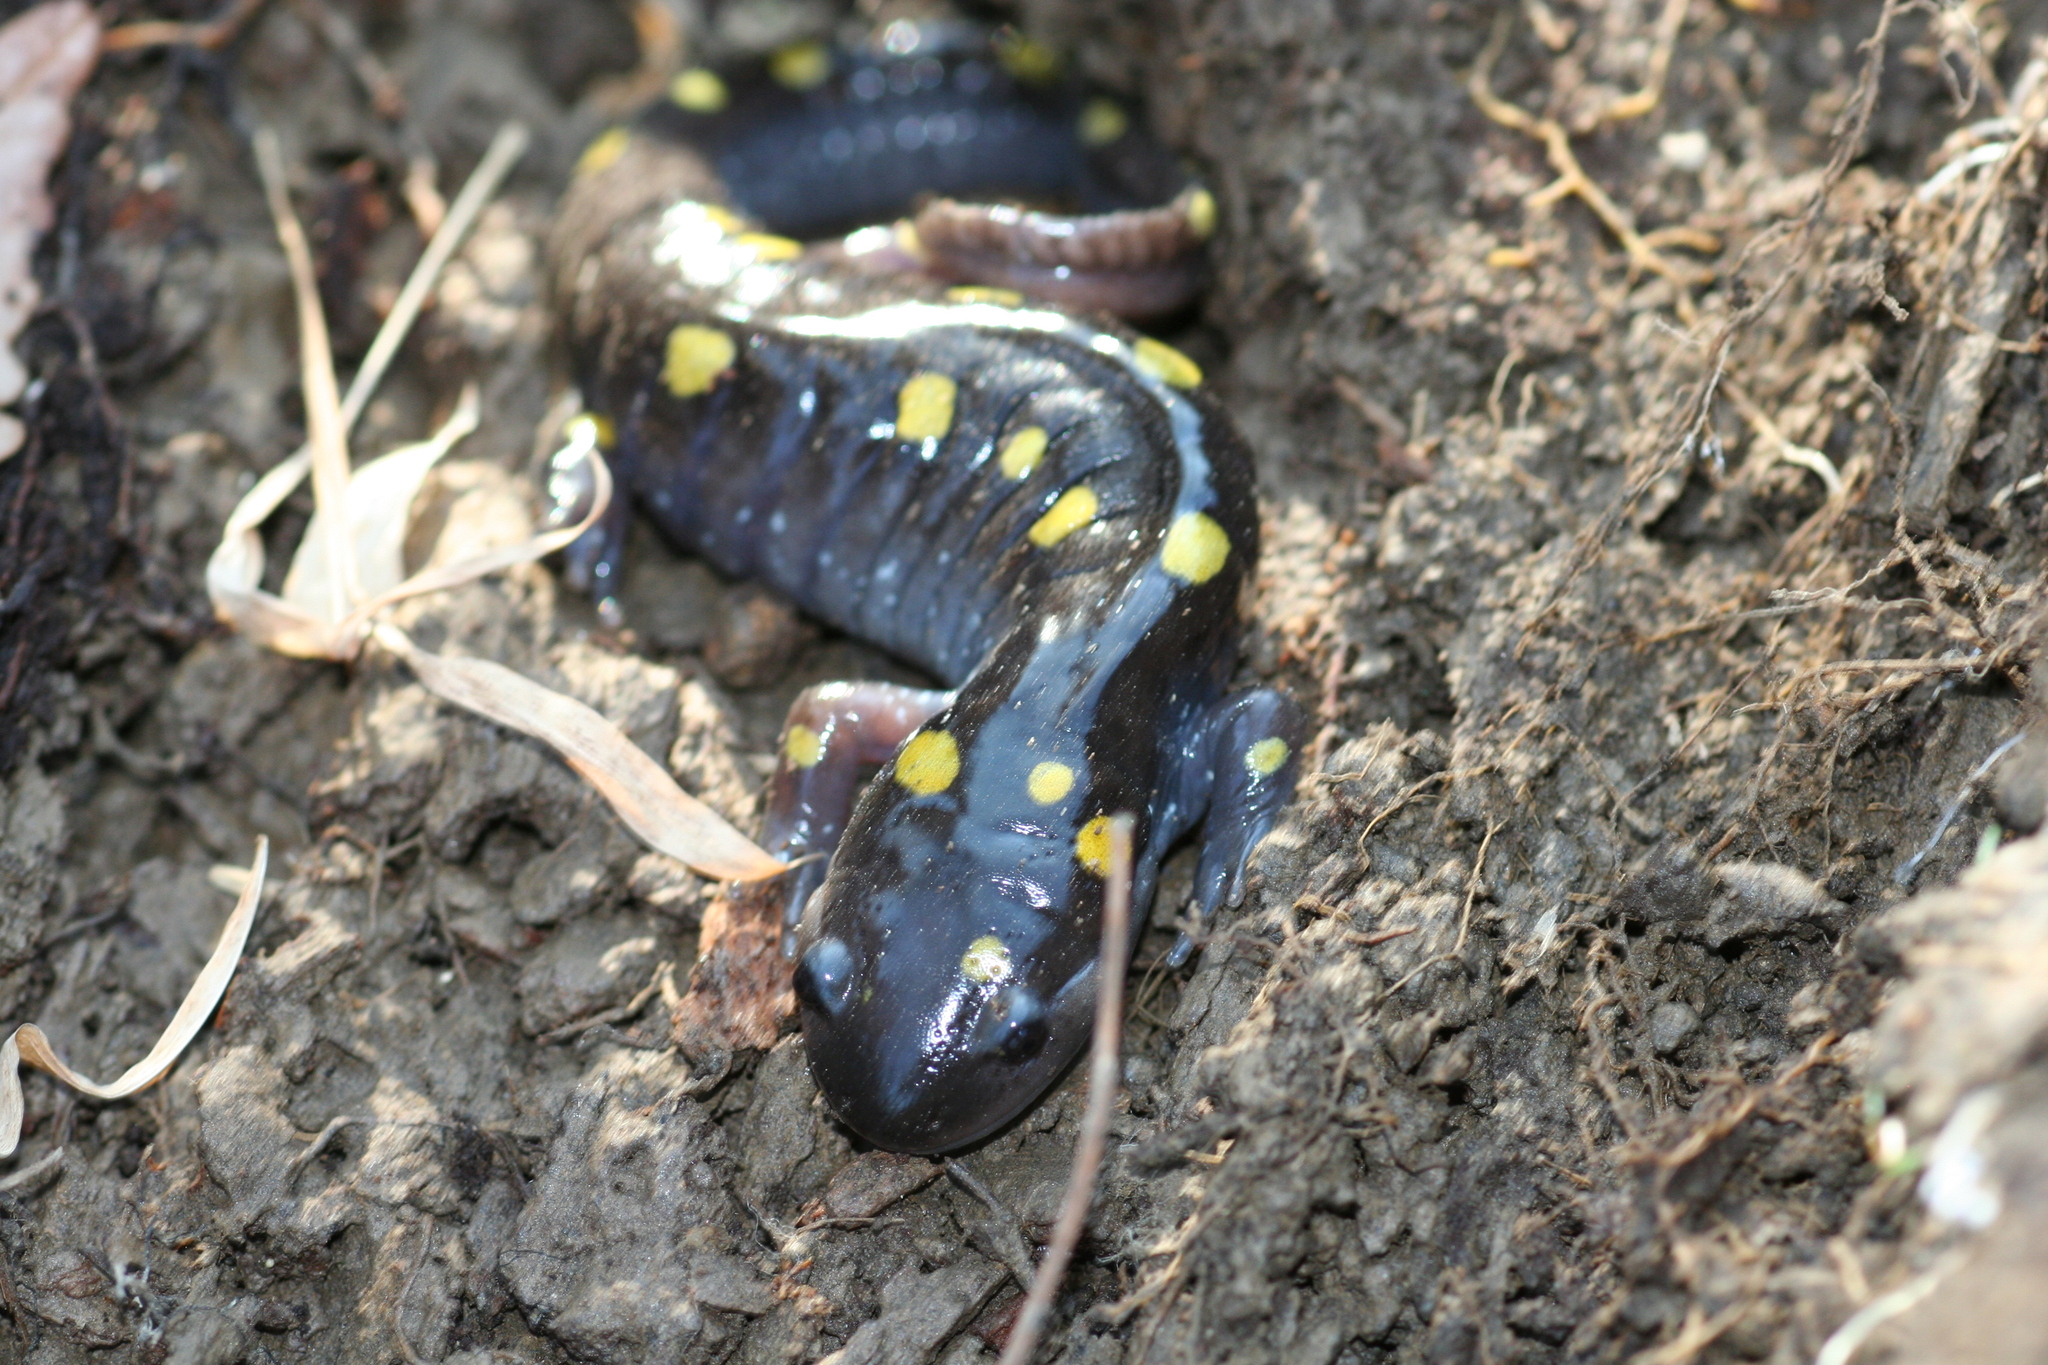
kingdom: Animalia
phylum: Chordata
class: Amphibia
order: Caudata
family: Ambystomatidae
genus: Ambystoma
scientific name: Ambystoma maculatum
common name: Spotted salamander
